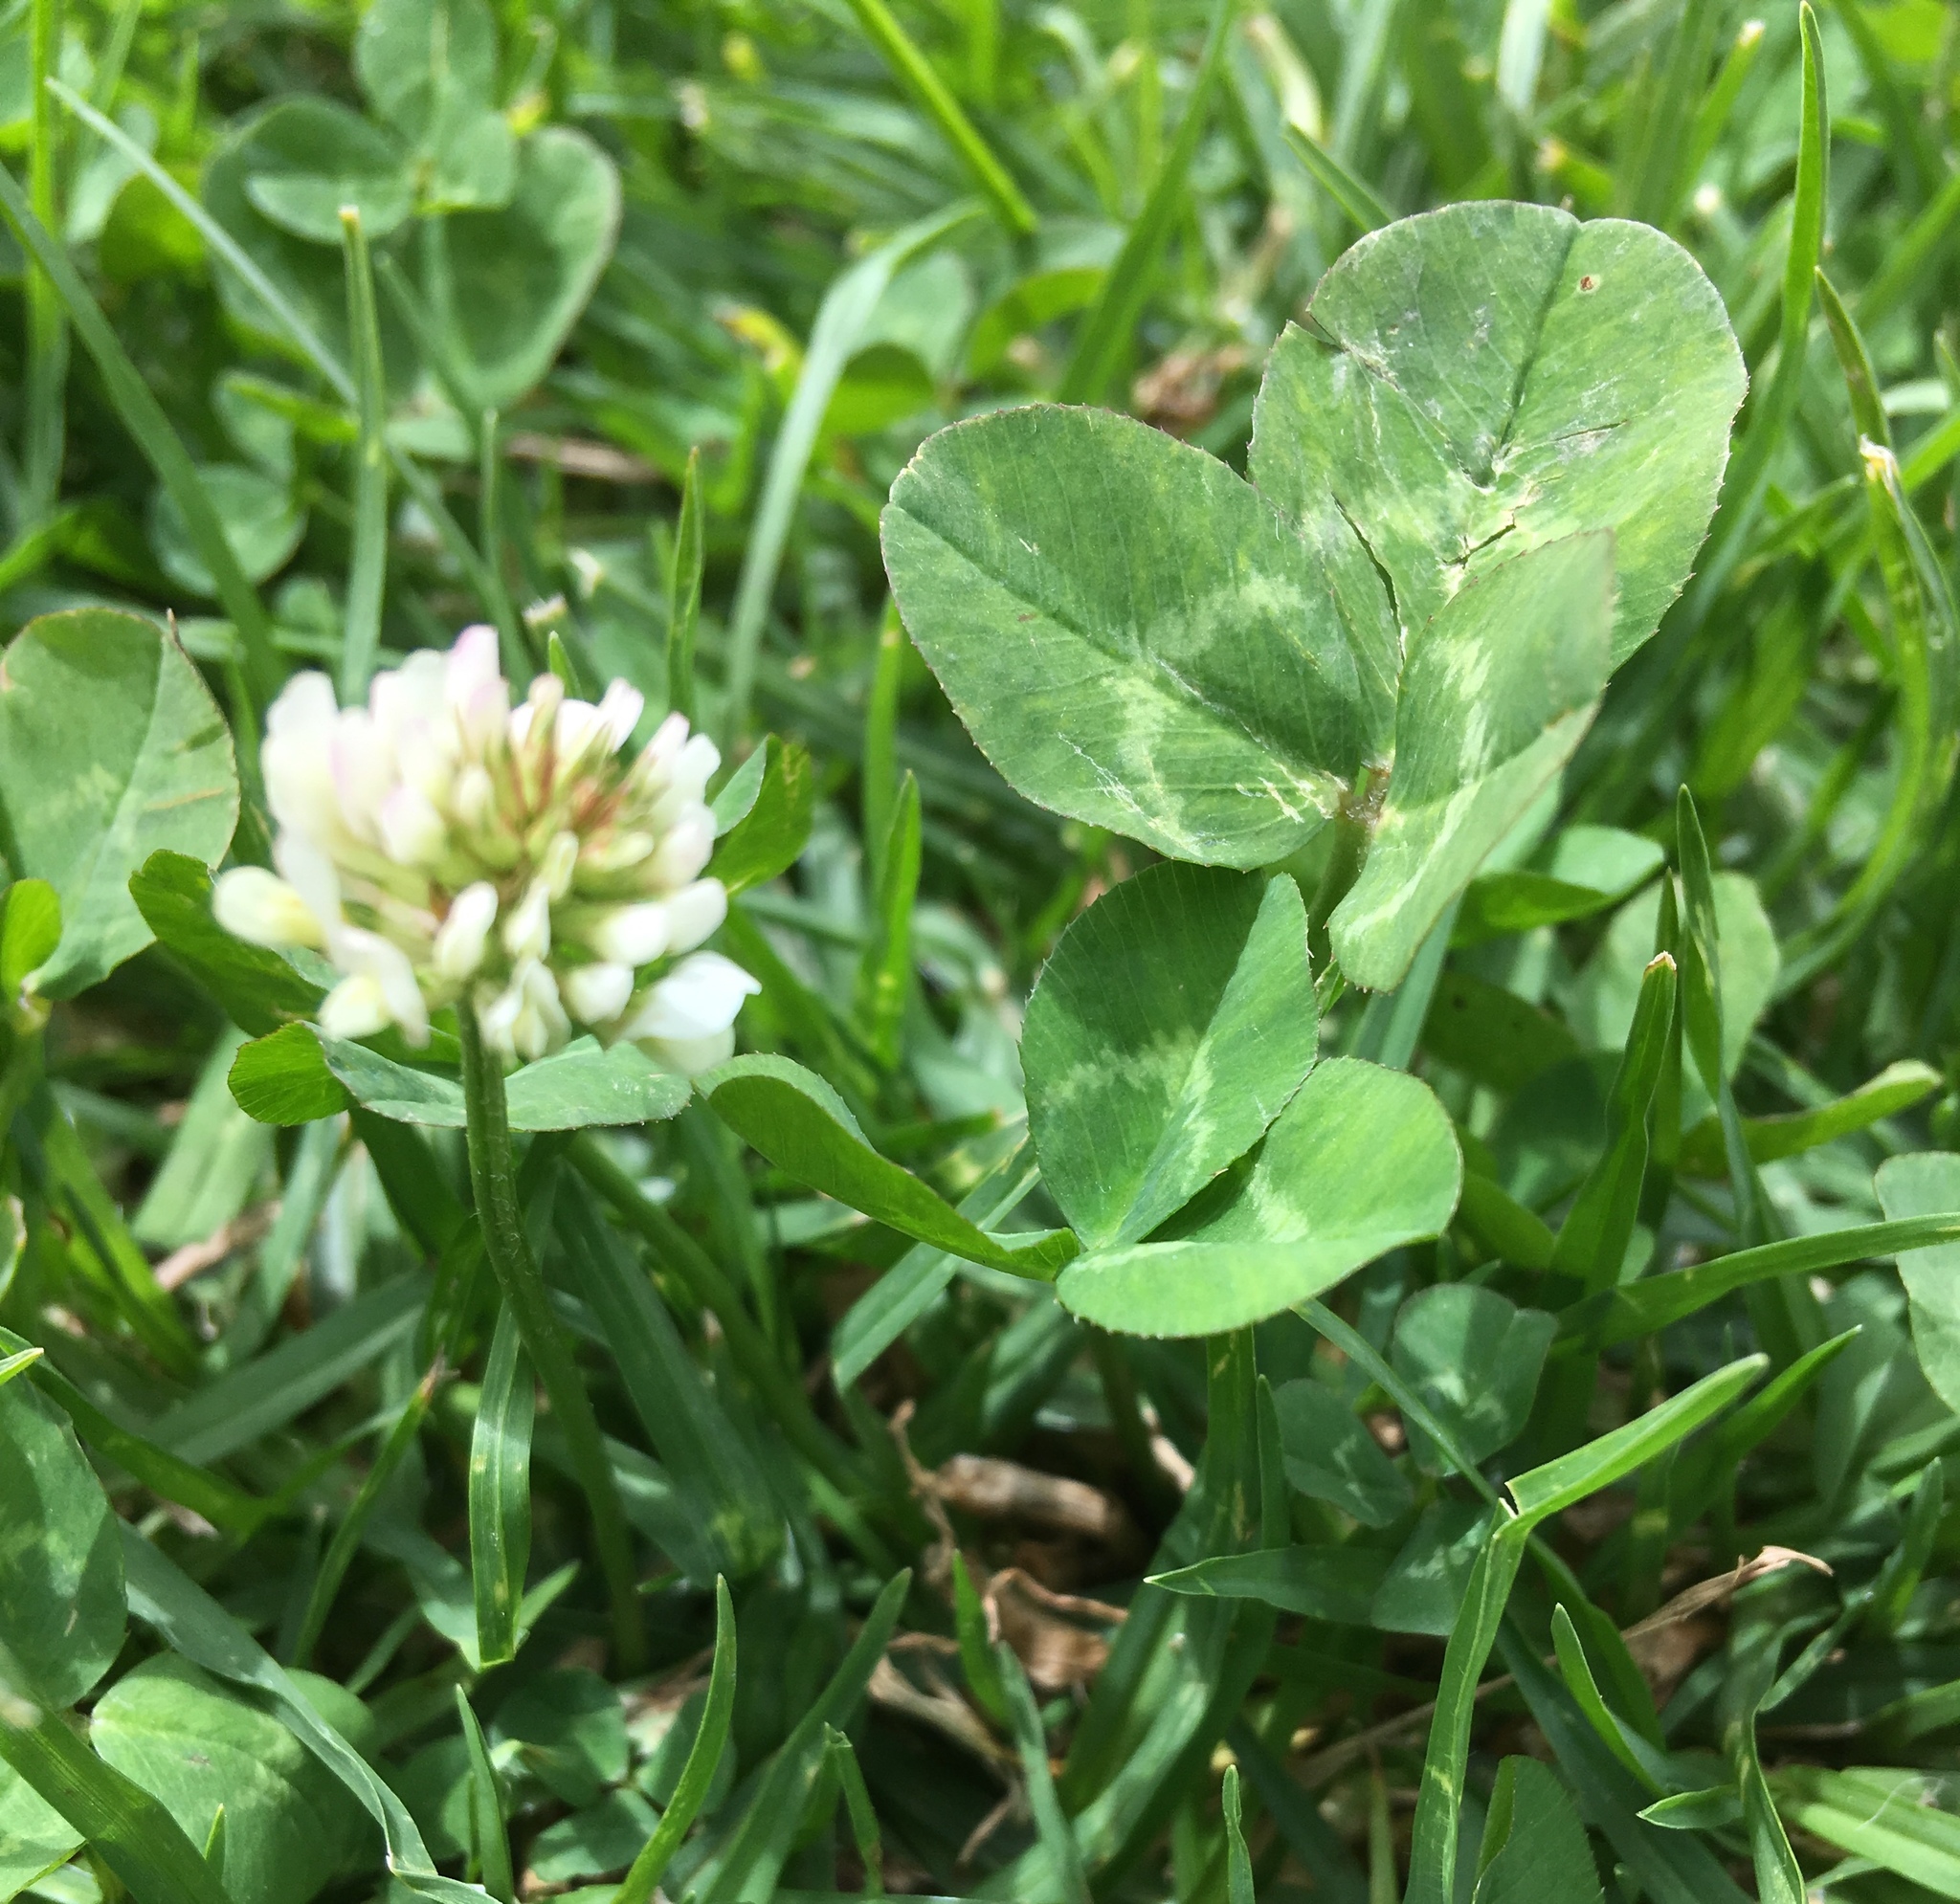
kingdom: Plantae
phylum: Tracheophyta
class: Magnoliopsida
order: Fabales
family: Fabaceae
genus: Trifolium
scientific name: Trifolium repens
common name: White clover
